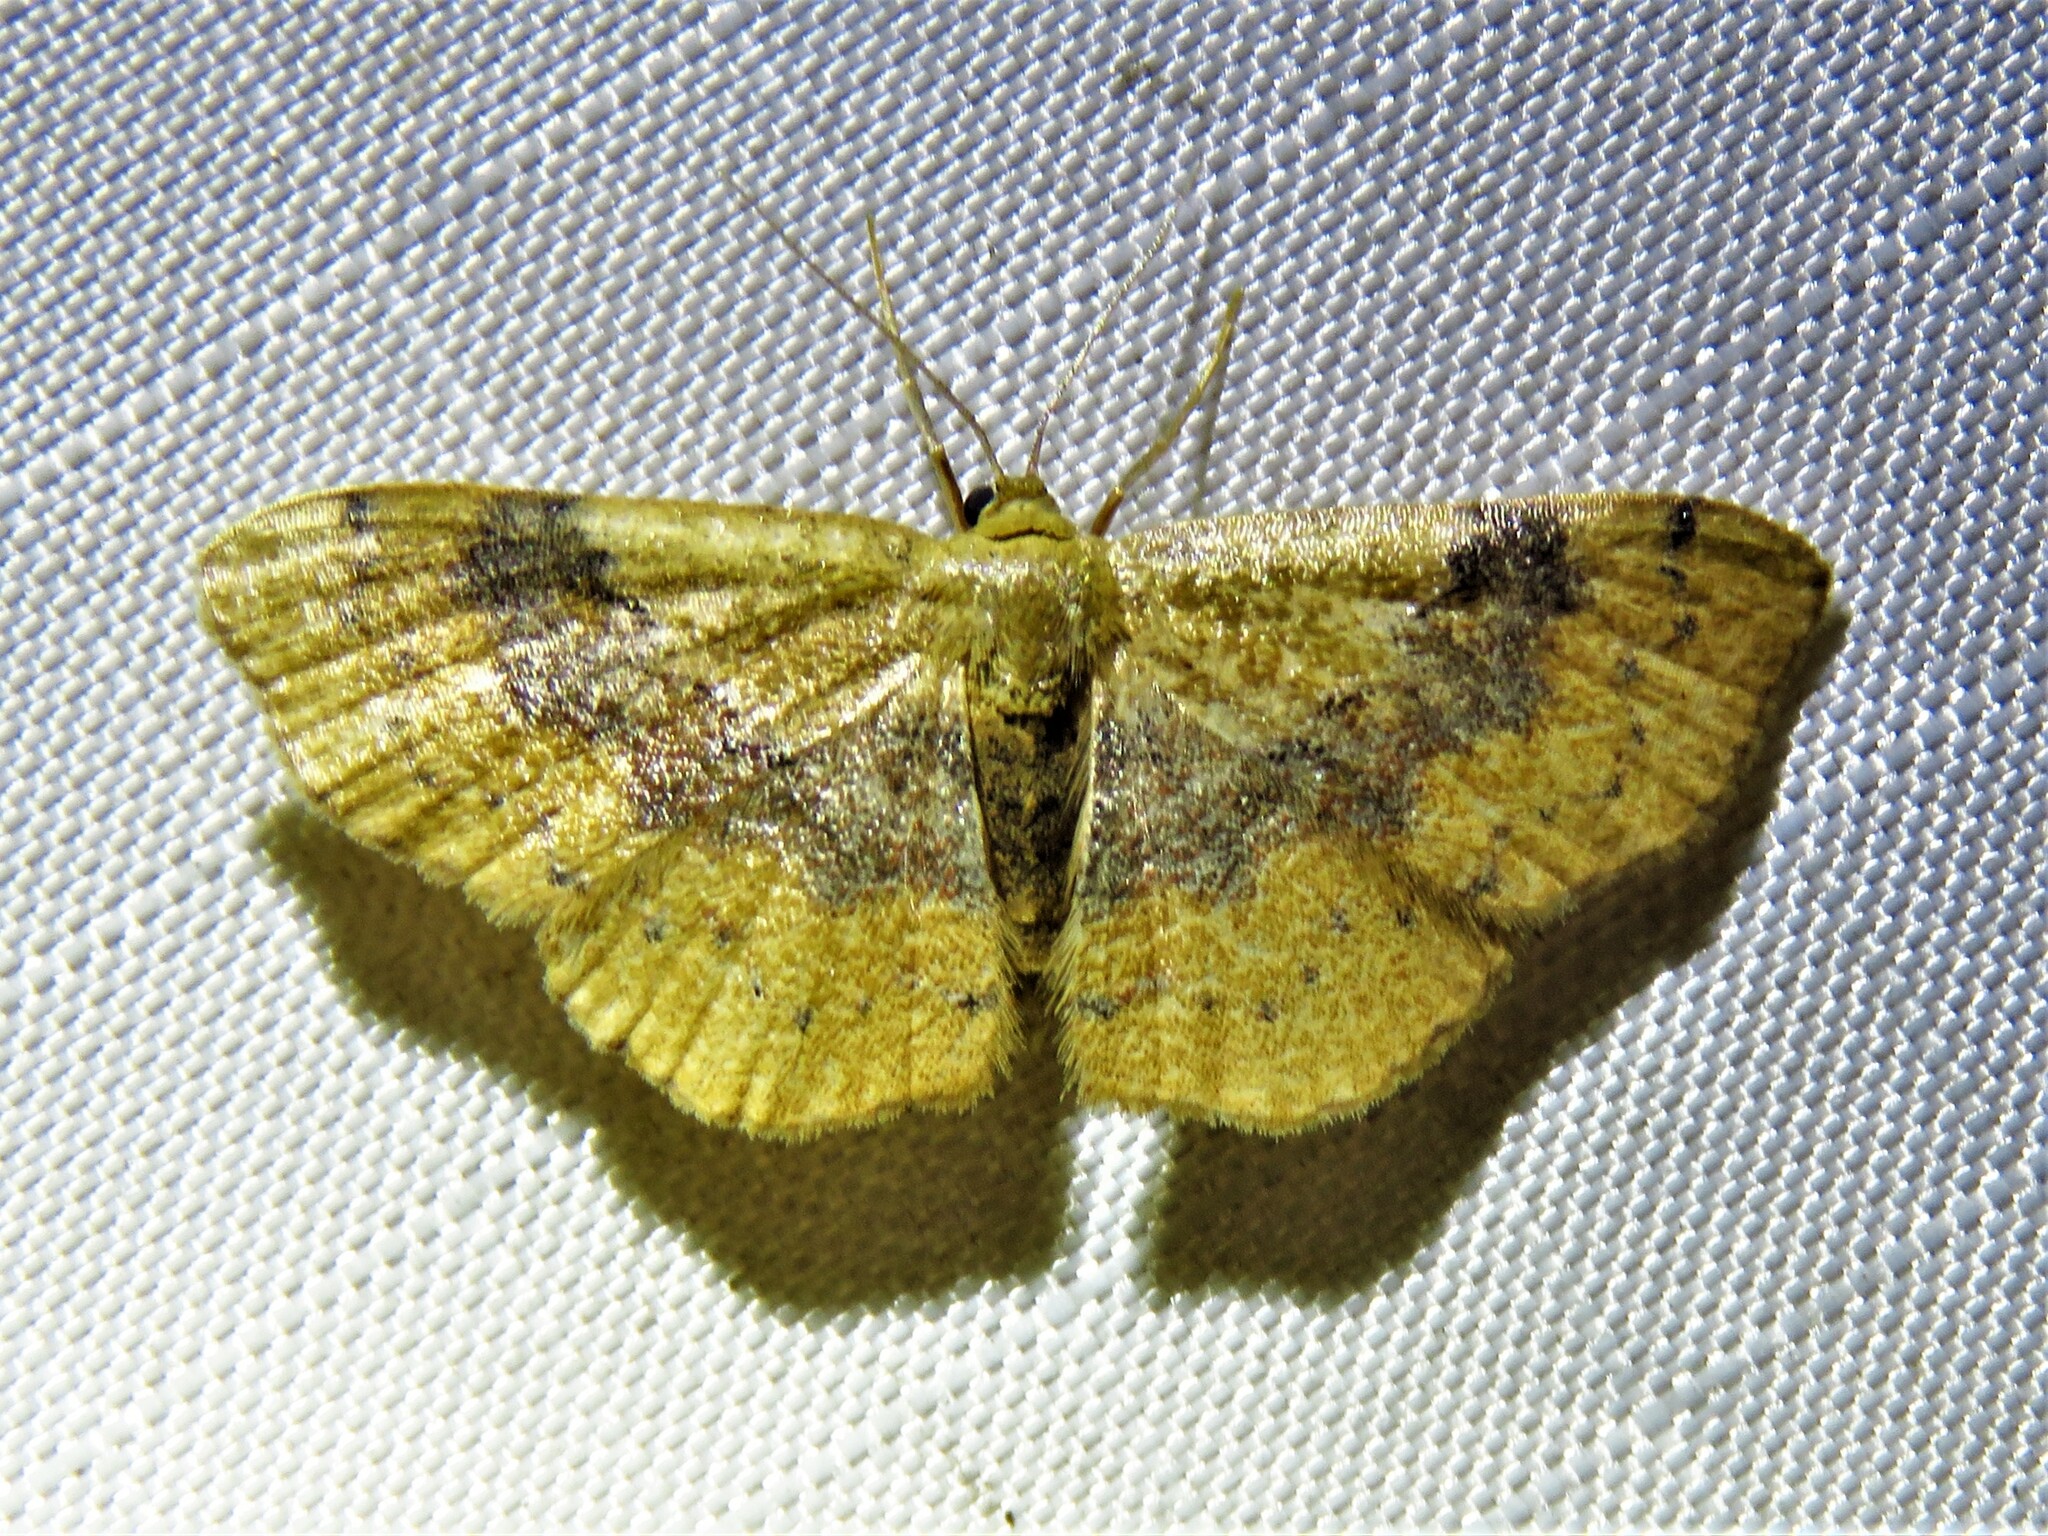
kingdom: Animalia
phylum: Arthropoda
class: Insecta
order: Lepidoptera
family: Geometridae
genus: Leptostales
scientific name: Leptostales ferruminaria
